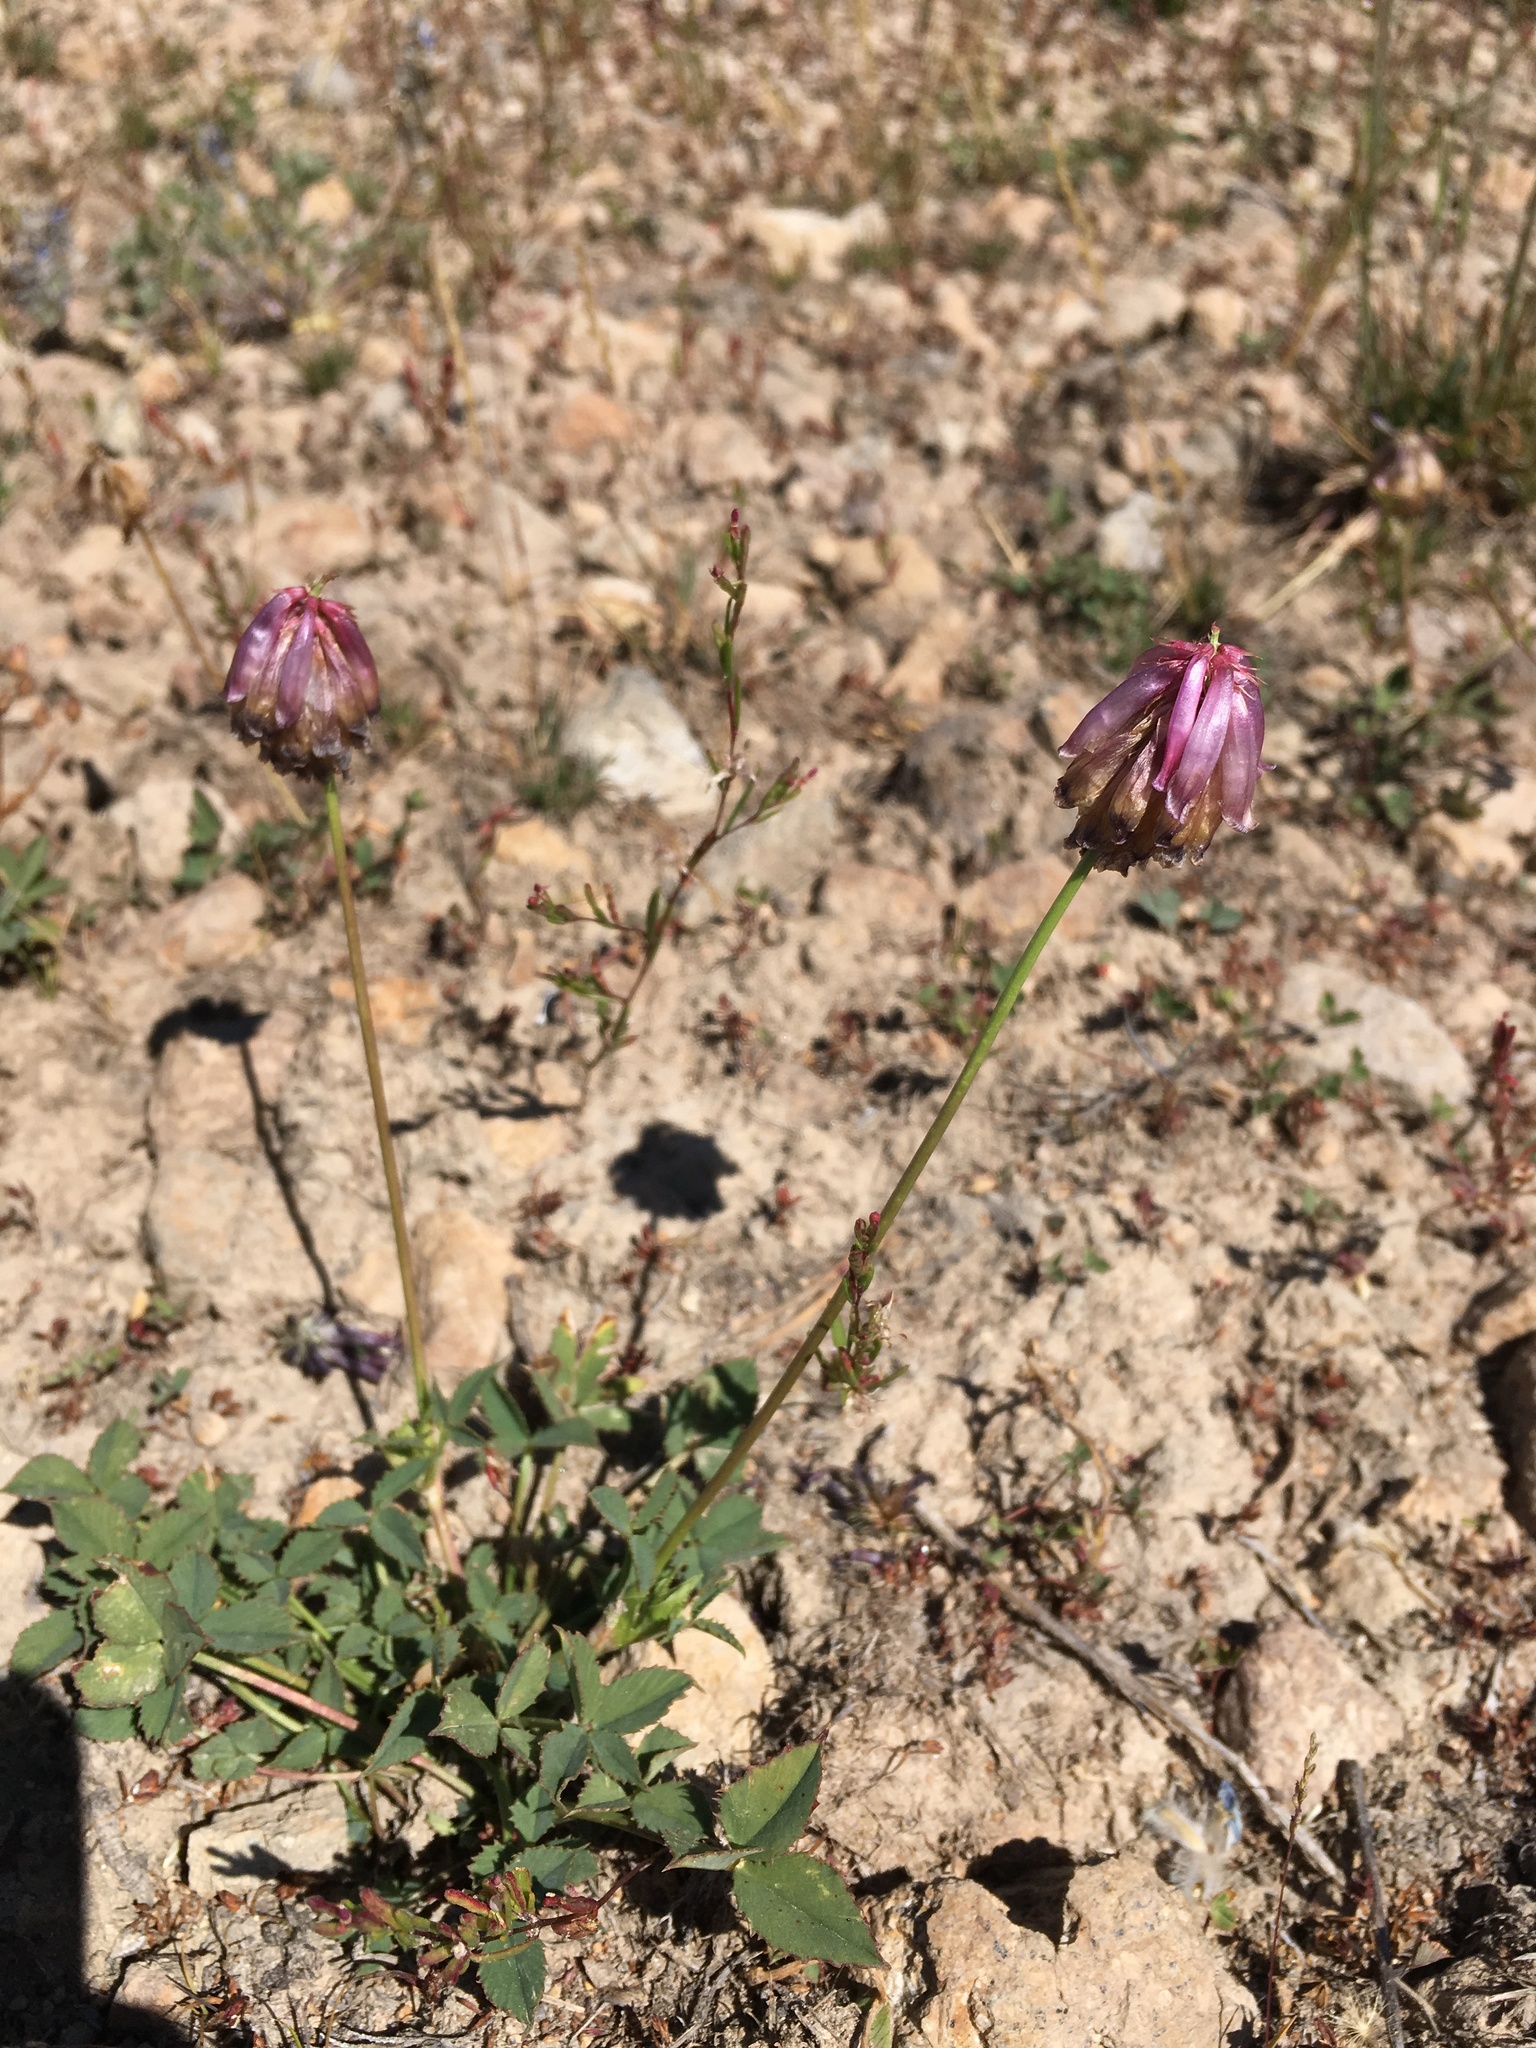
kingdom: Plantae
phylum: Tracheophyta
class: Magnoliopsida
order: Fabales
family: Fabaceae
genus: Trifolium
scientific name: Trifolium productum
